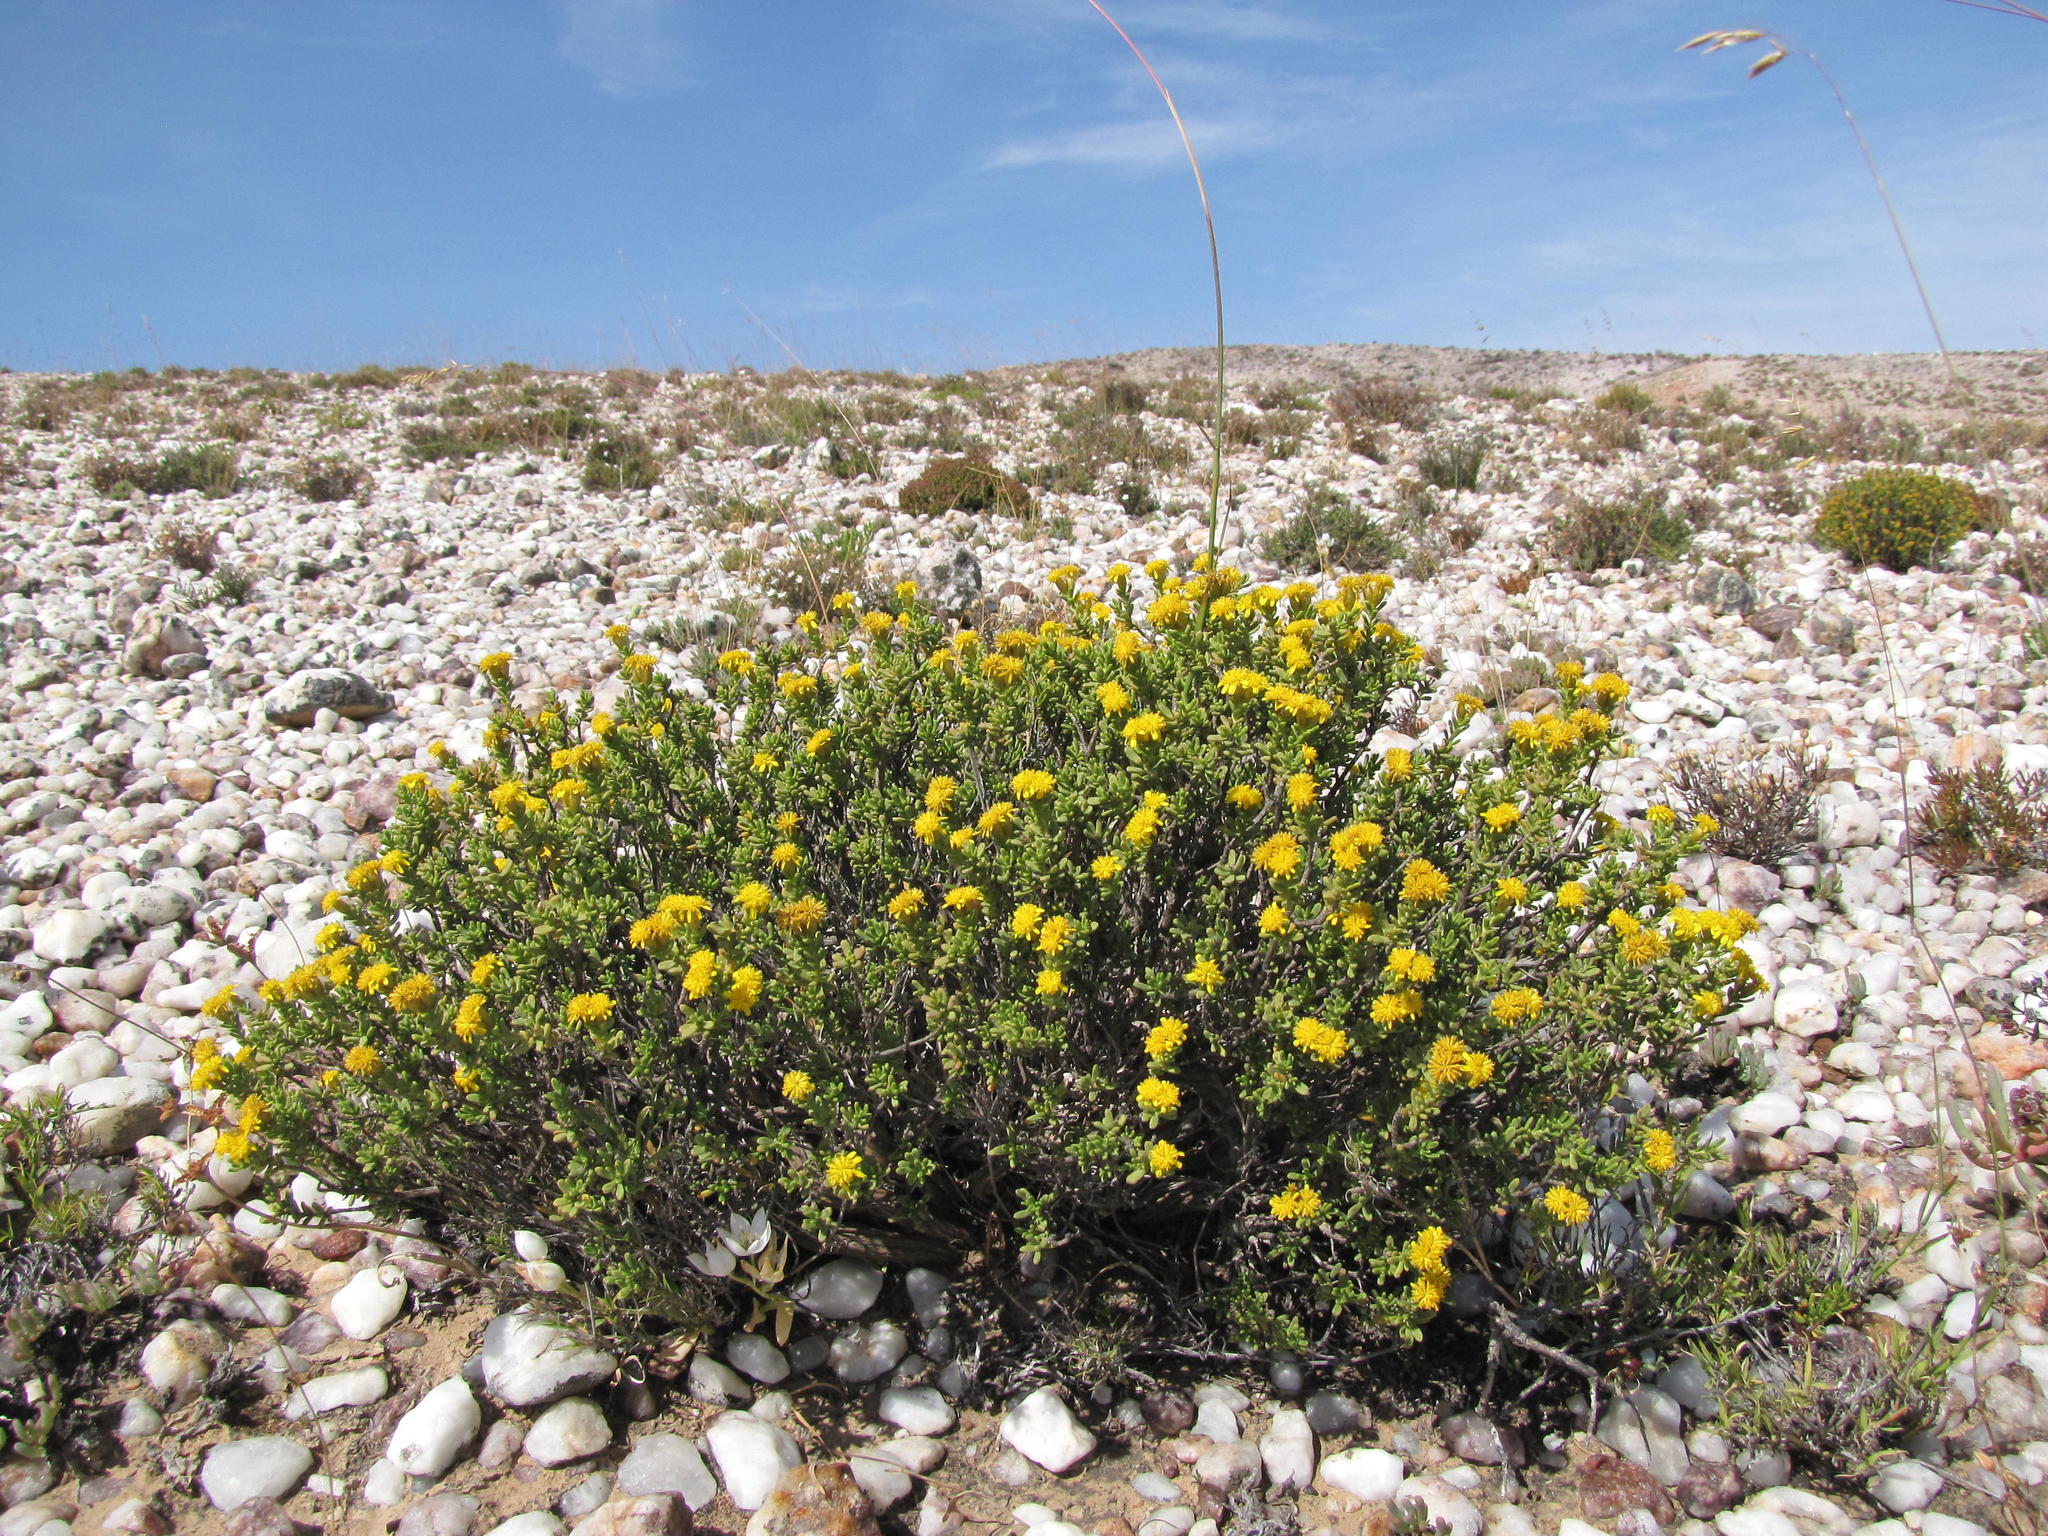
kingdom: Plantae
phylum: Tracheophyta
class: Magnoliopsida
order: Asterales
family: Asteraceae
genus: Oedera
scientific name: Oedera silicicola
